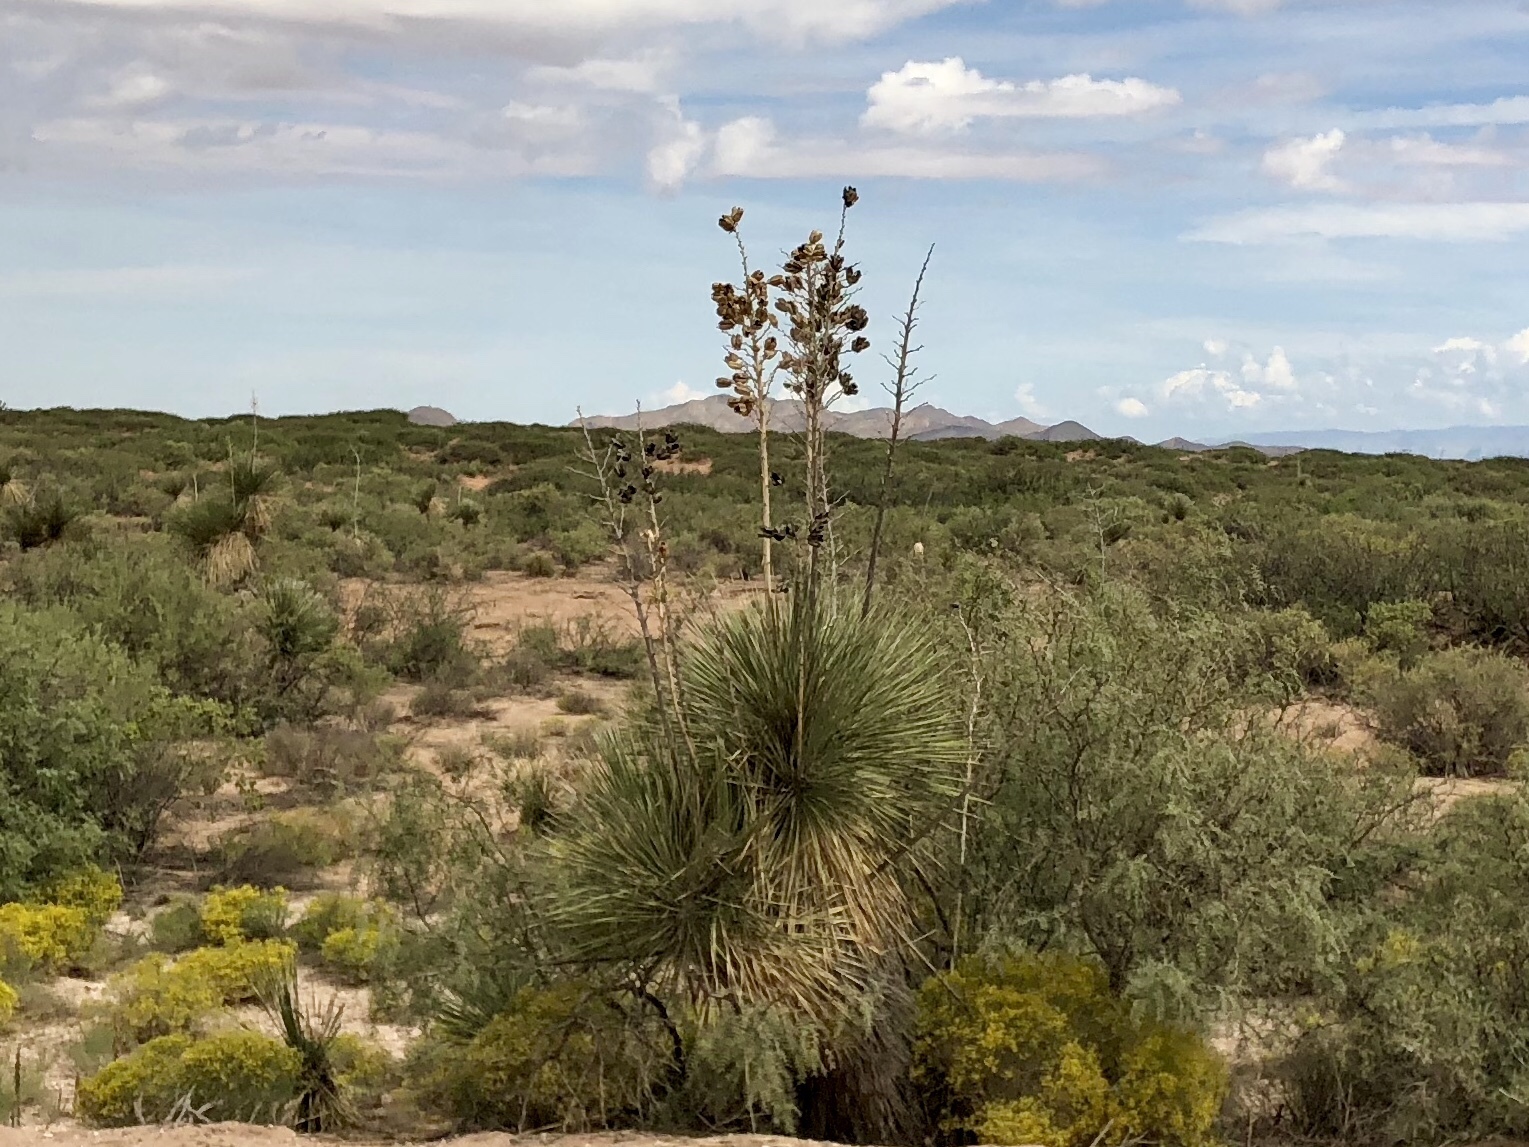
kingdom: Plantae
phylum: Tracheophyta
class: Liliopsida
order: Asparagales
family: Asparagaceae
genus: Yucca
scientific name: Yucca elata
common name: Palmella
